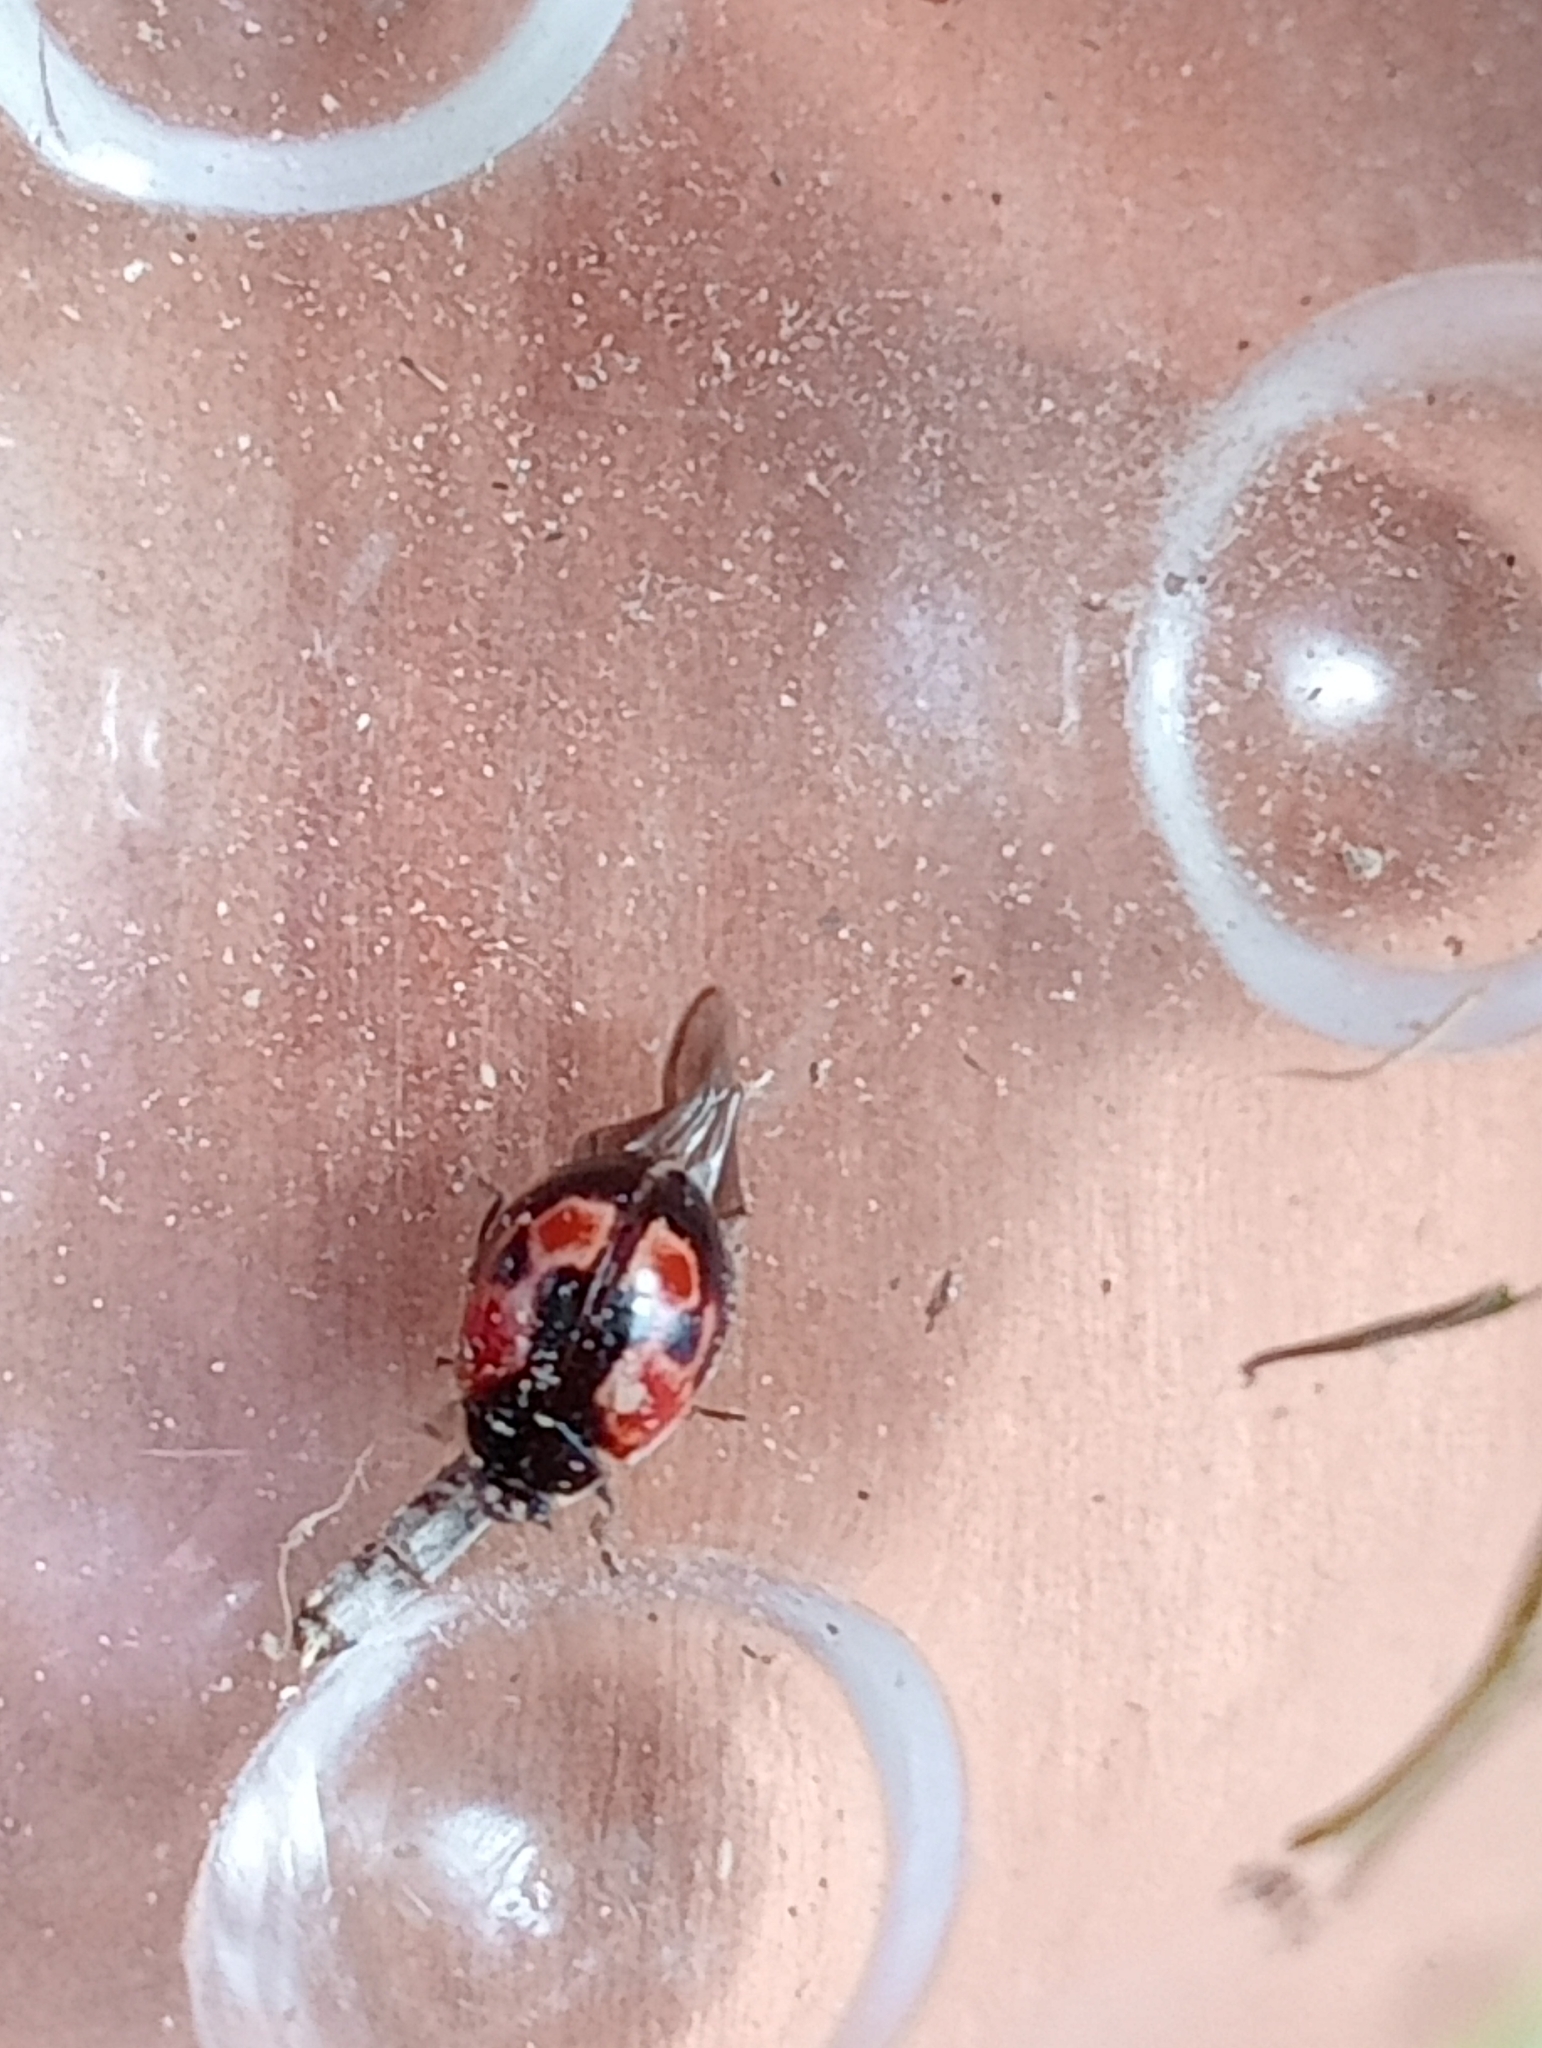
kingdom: Animalia
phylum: Arthropoda
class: Insecta
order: Coleoptera
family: Coccinellidae
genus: Adalia
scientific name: Adalia bipunctata
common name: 2-spot ladybird
